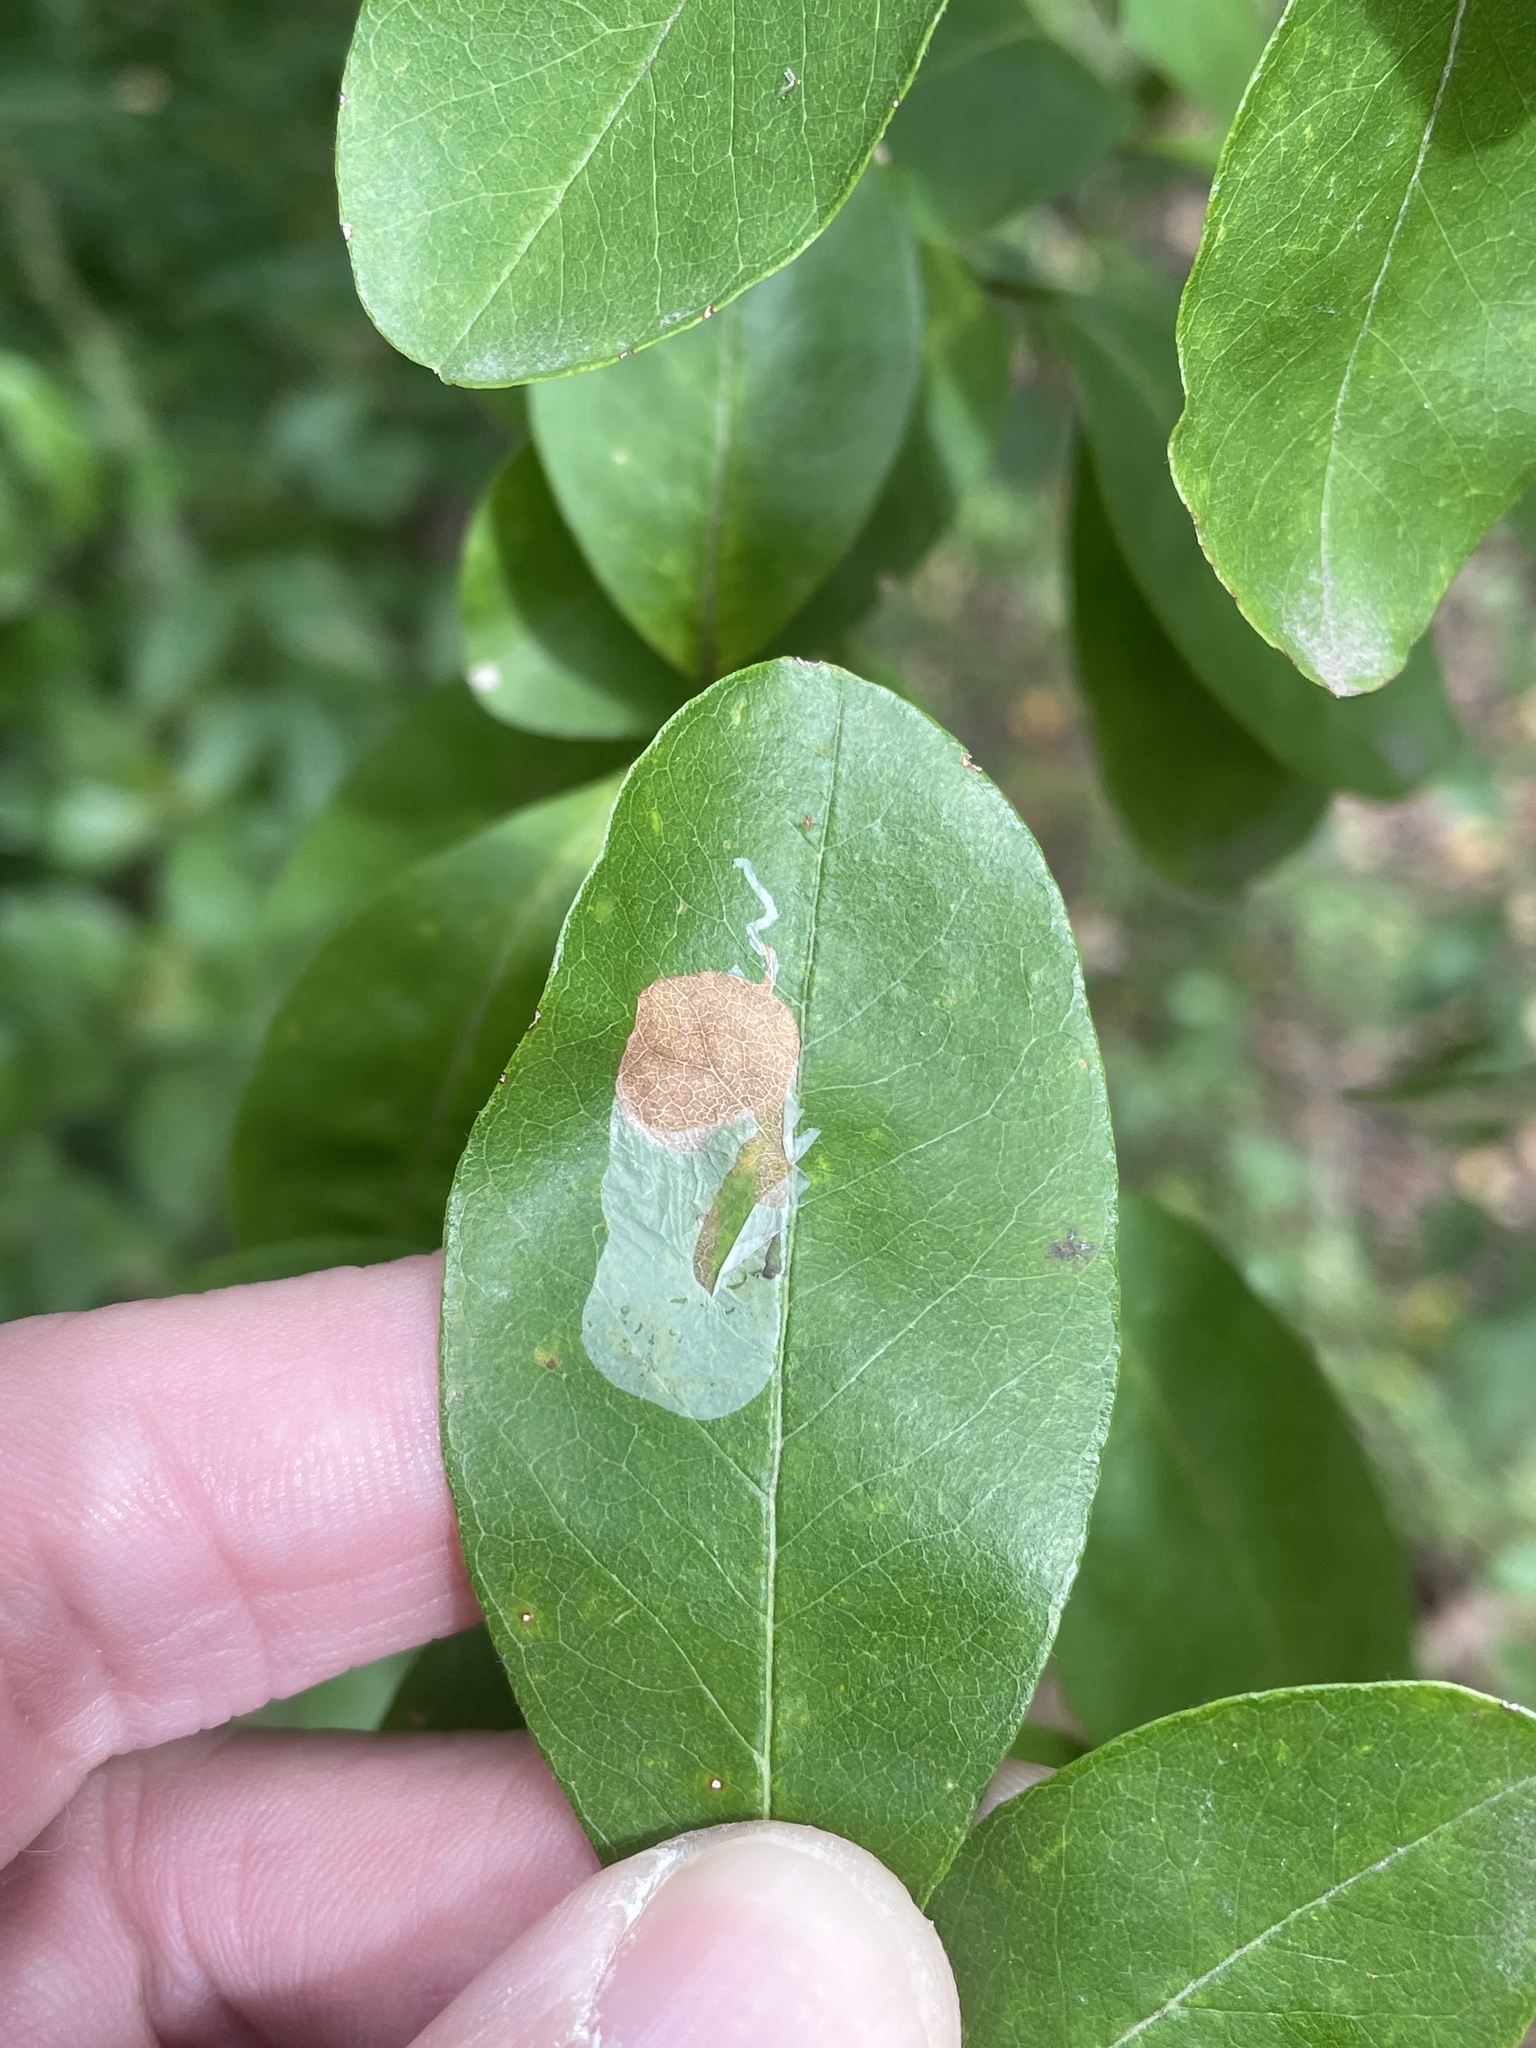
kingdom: Animalia
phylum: Arthropoda
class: Insecta
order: Lepidoptera
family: Gracillariidae
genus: Parectopa
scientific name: Parectopa bumeliella
